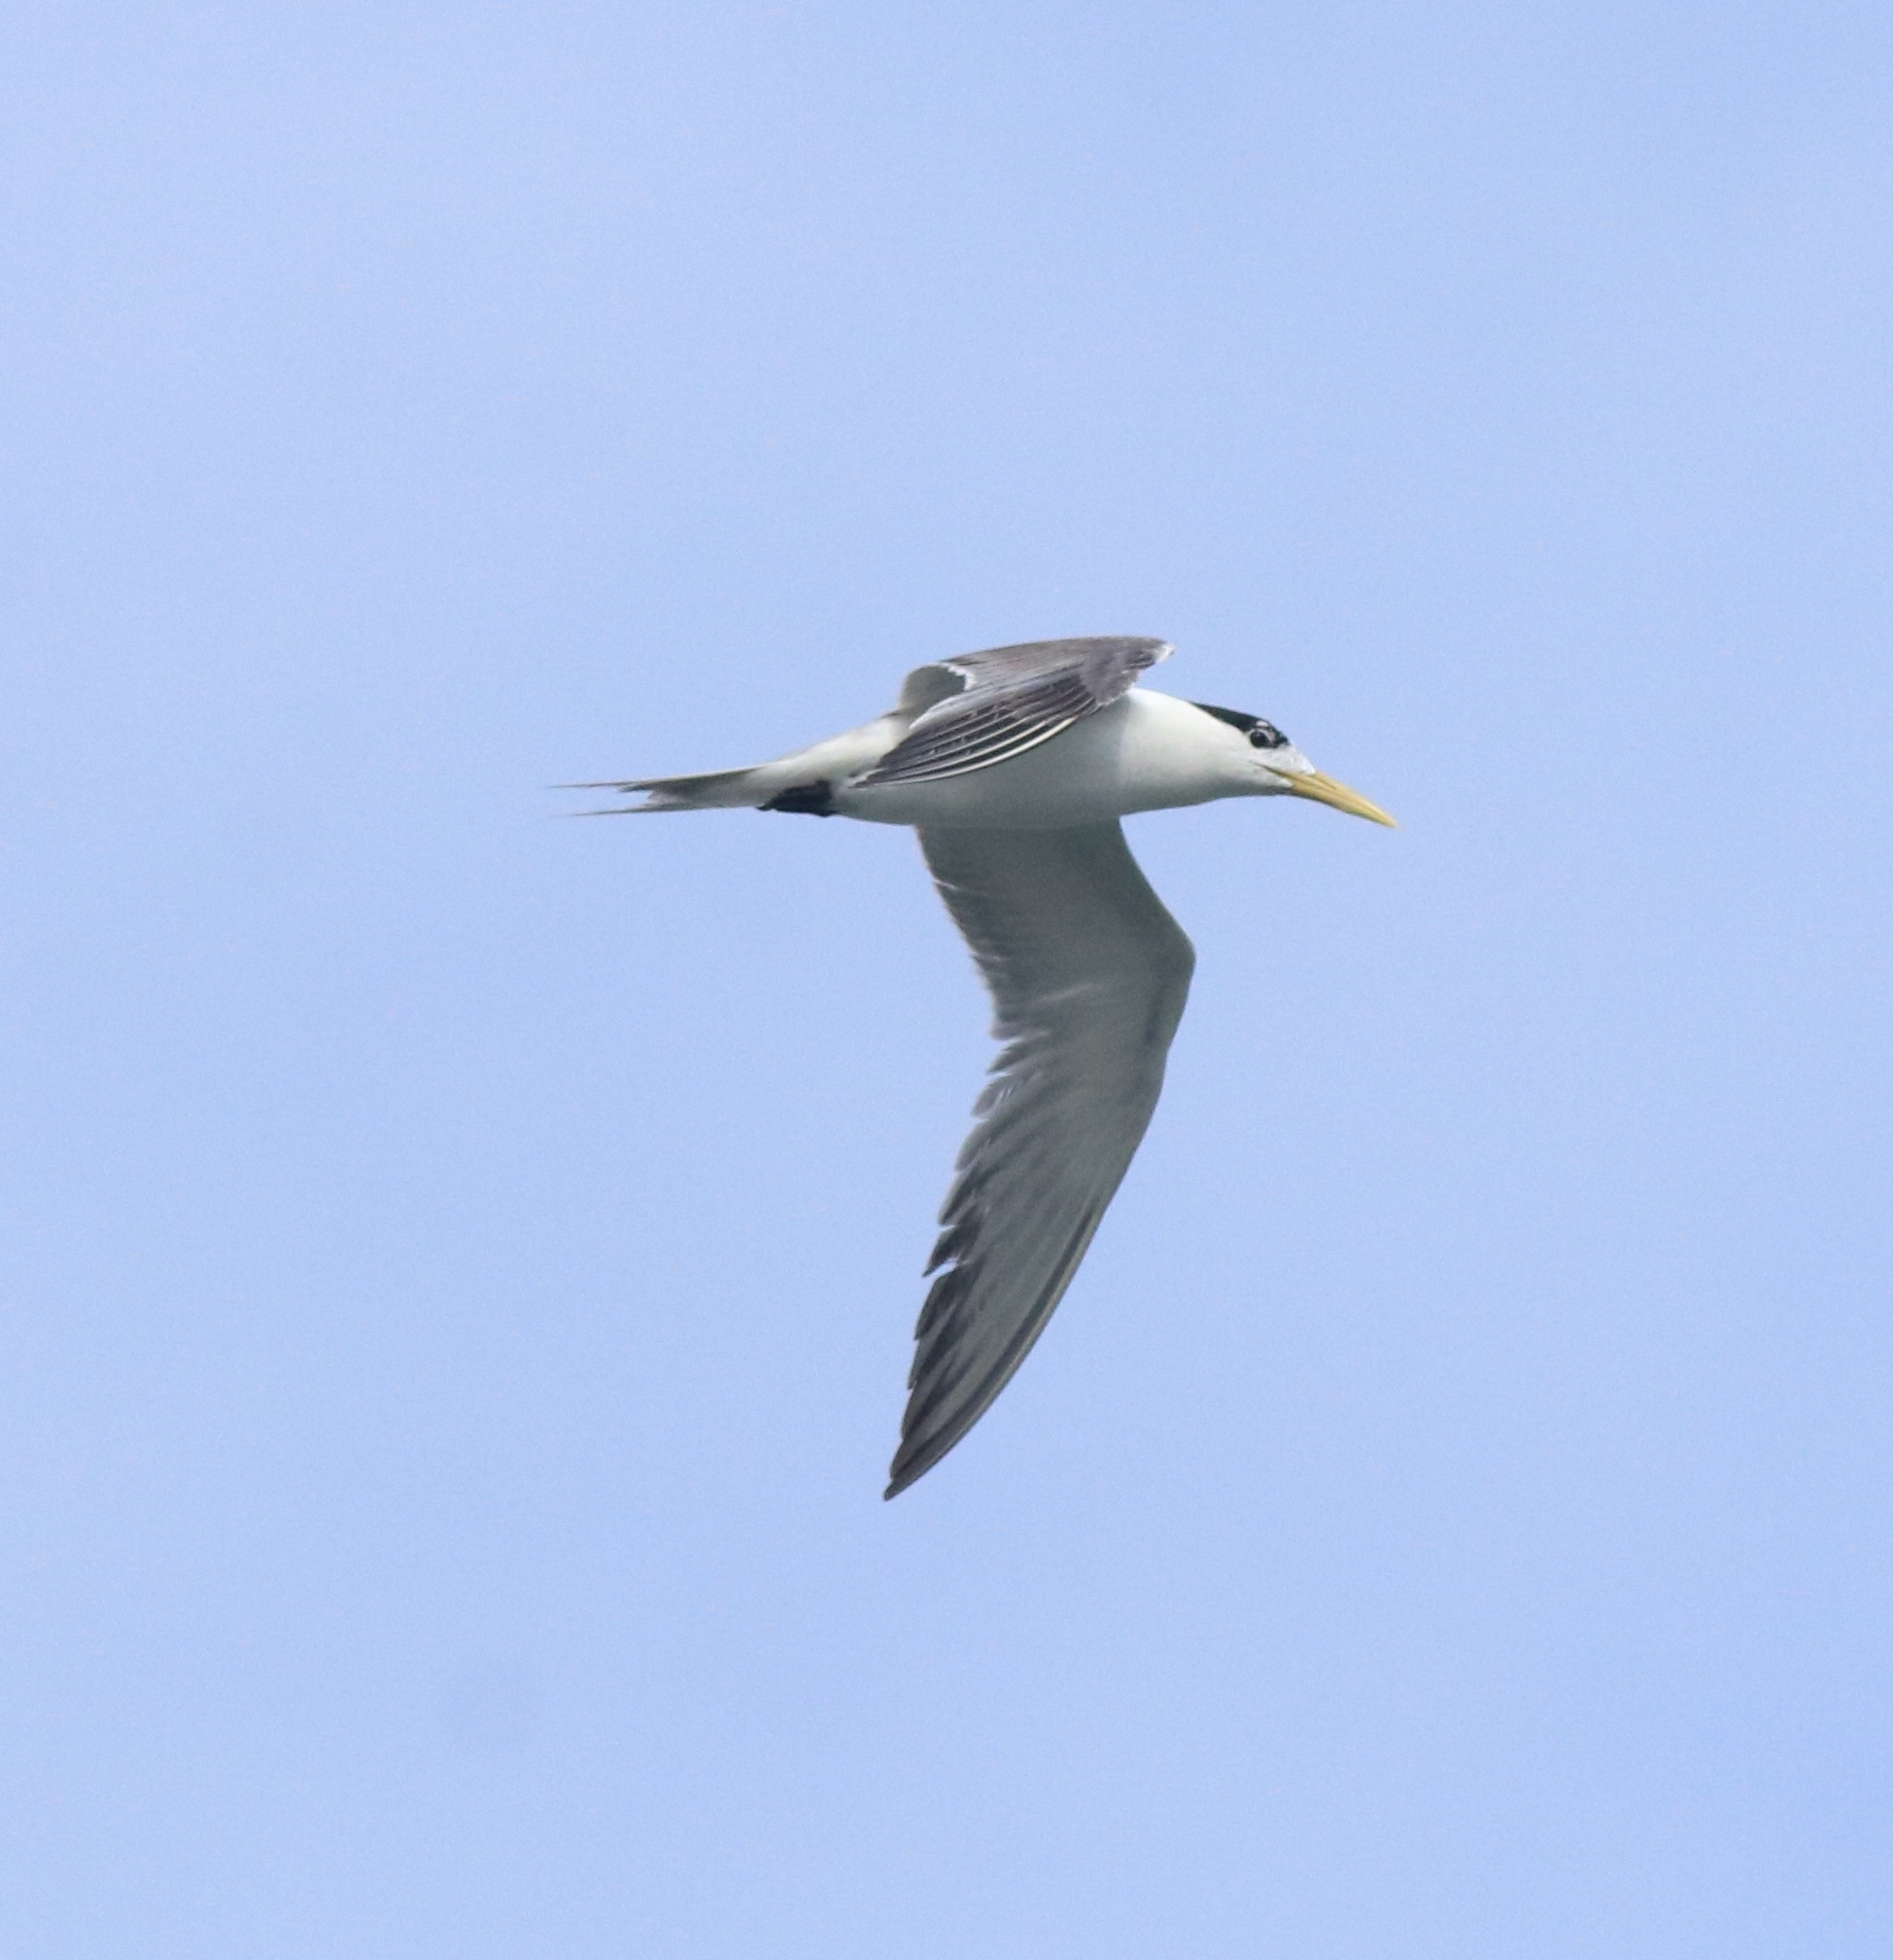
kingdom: Animalia
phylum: Chordata
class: Aves
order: Charadriiformes
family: Laridae
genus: Thalasseus
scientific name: Thalasseus bengalensis
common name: Lesser crested tern
